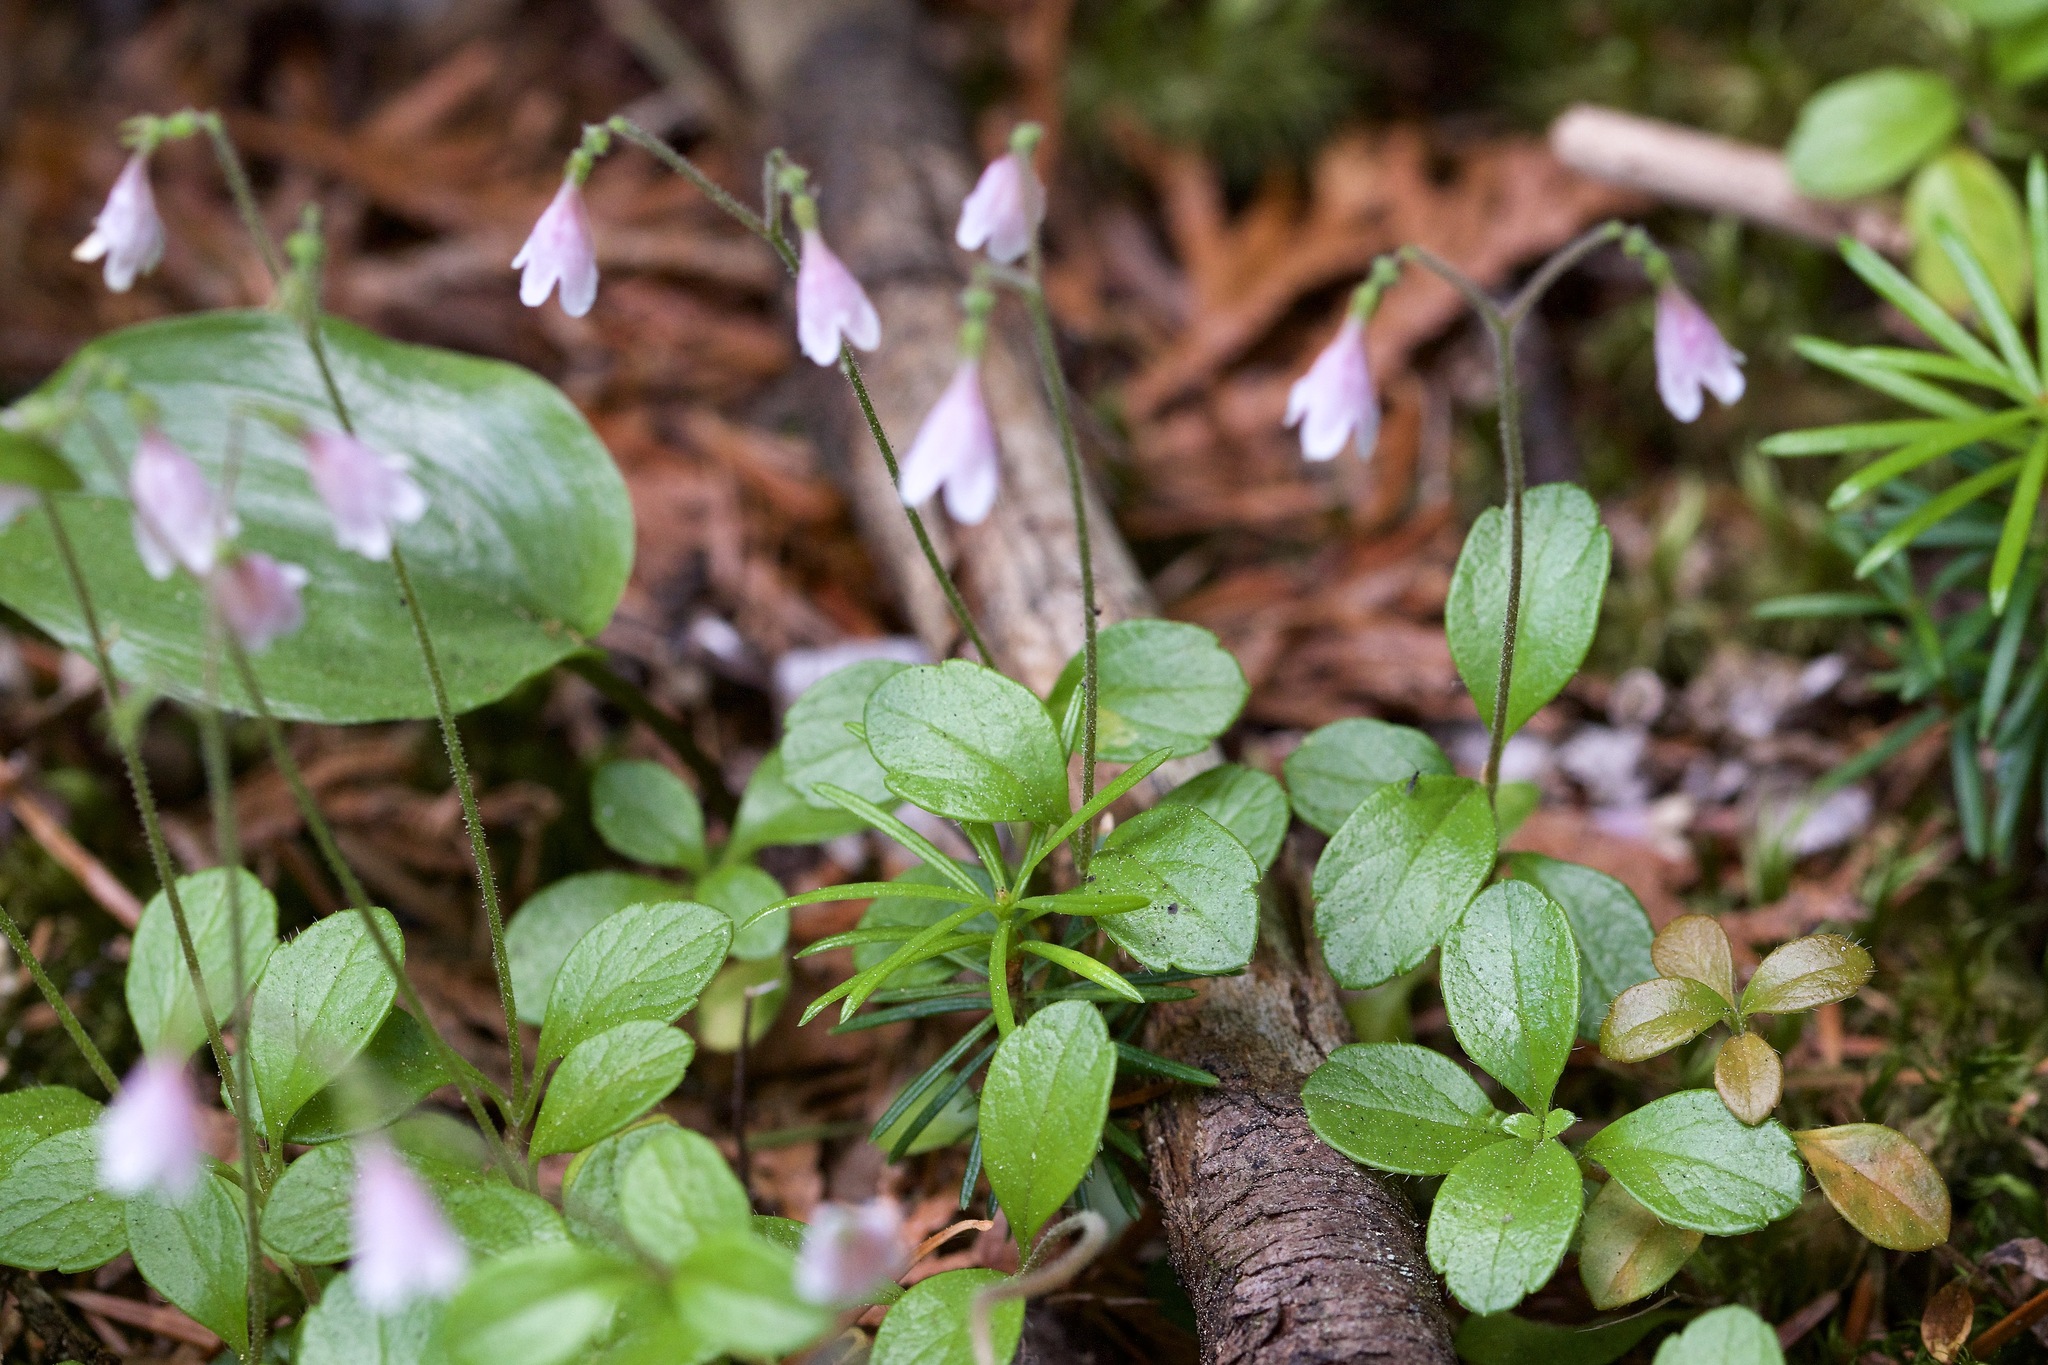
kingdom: Plantae
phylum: Tracheophyta
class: Magnoliopsida
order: Dipsacales
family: Caprifoliaceae
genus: Linnaea
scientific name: Linnaea borealis
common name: Twinflower
